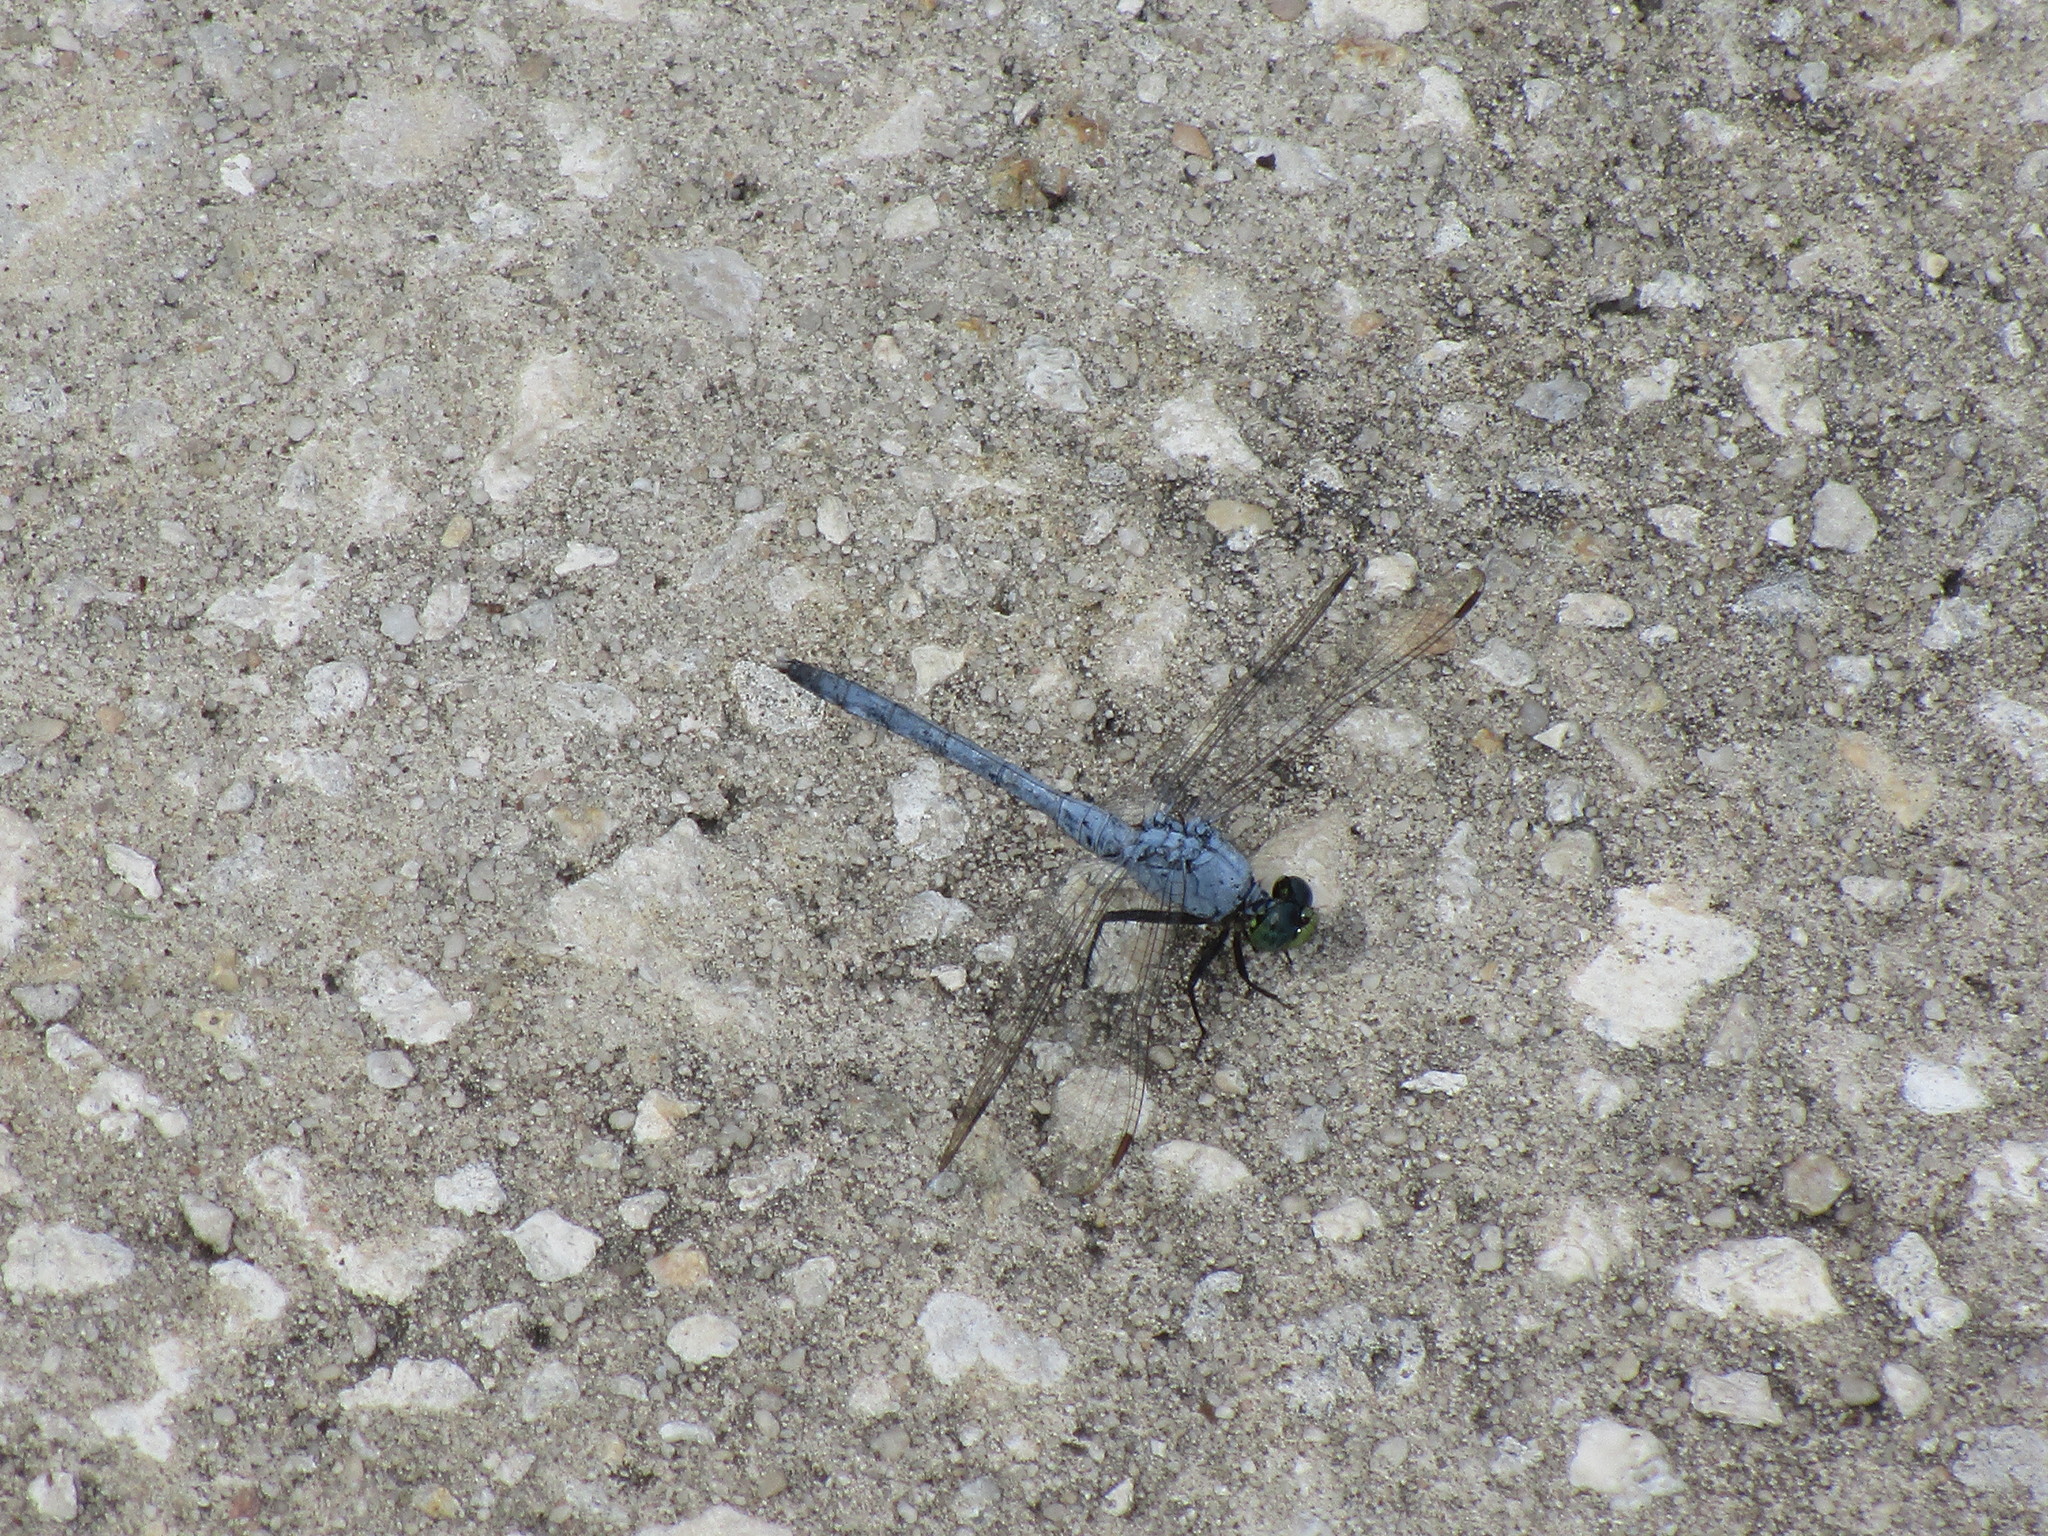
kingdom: Animalia
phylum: Arthropoda
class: Insecta
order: Odonata
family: Libellulidae
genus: Erythemis
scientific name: Erythemis simplicicollis
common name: Eastern pondhawk
